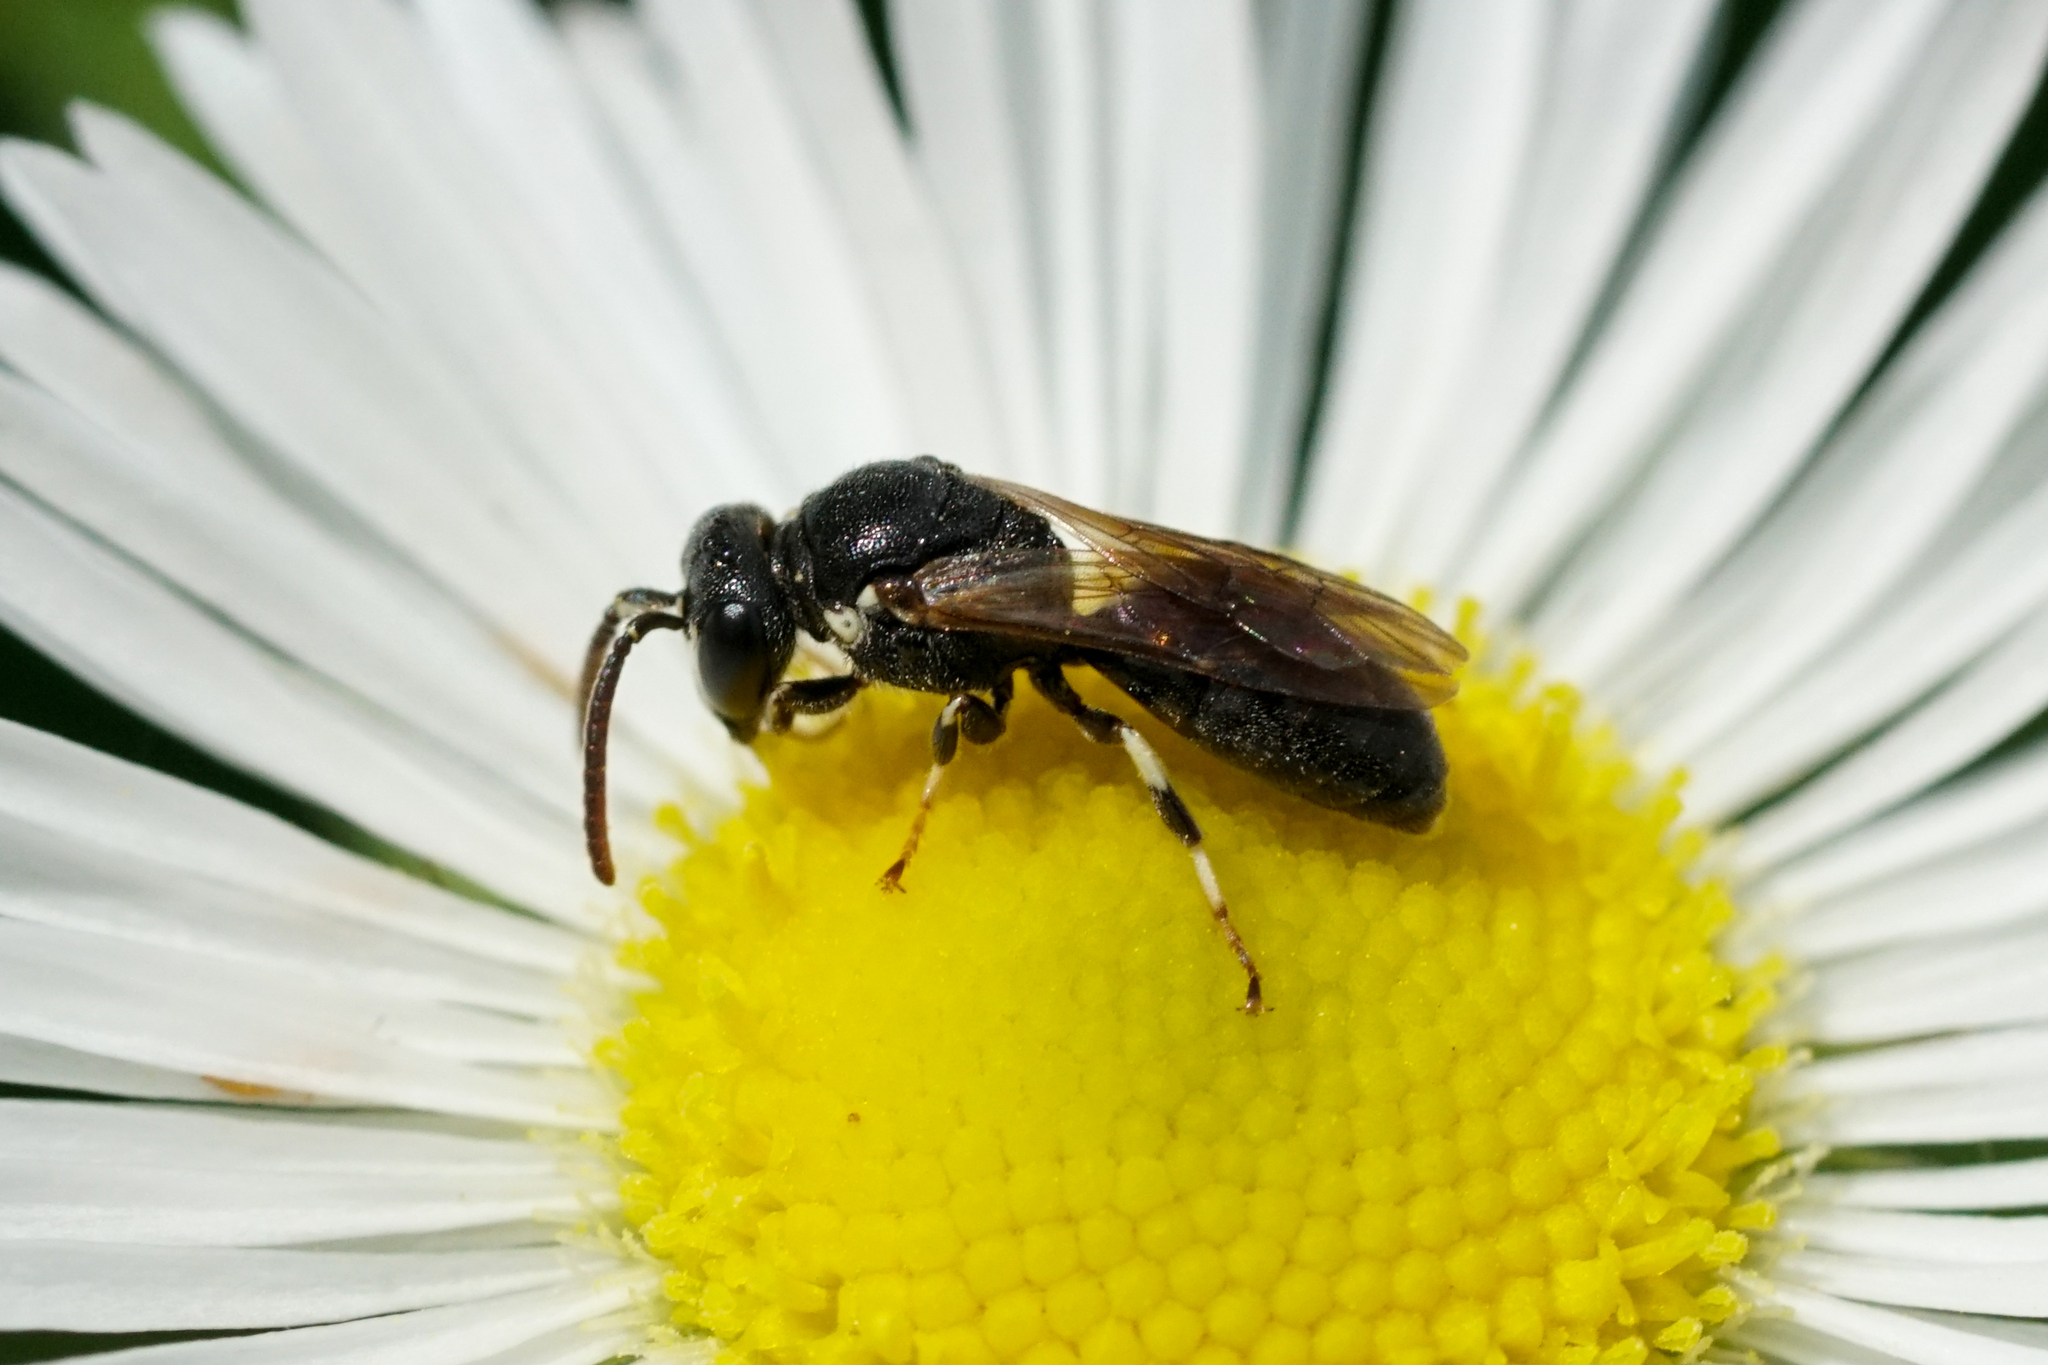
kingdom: Animalia
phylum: Arthropoda
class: Insecta
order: Hymenoptera
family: Colletidae
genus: Hylaeus
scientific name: Hylaeus leptocephalus
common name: Slender-faced masked bee
